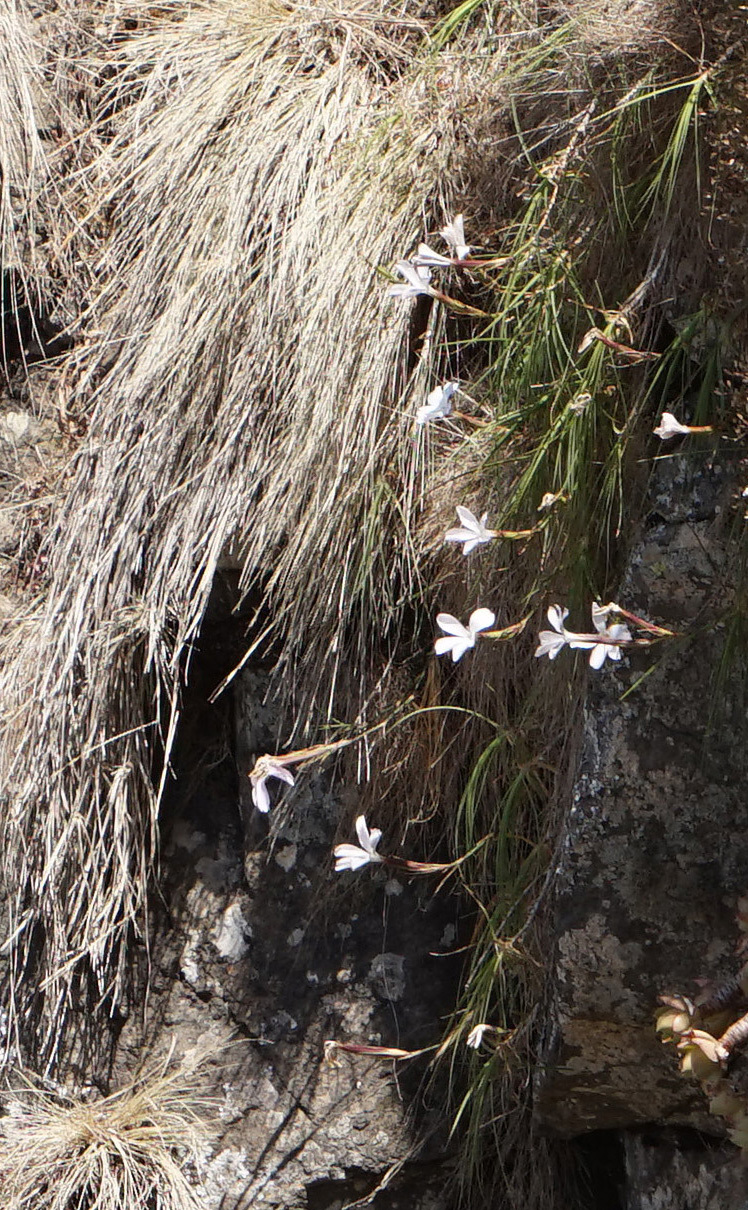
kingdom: Plantae
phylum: Tracheophyta
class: Magnoliopsida
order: Caryophyllales
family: Caryophyllaceae
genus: Dianthus
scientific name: Dianthus longiglumis
